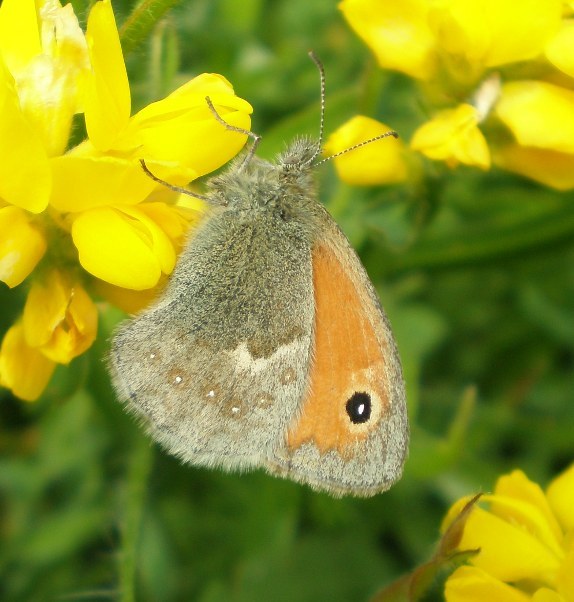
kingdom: Animalia
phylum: Arthropoda
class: Insecta
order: Lepidoptera
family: Nymphalidae
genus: Coenonympha
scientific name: Coenonympha pamphilus
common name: Small heath
